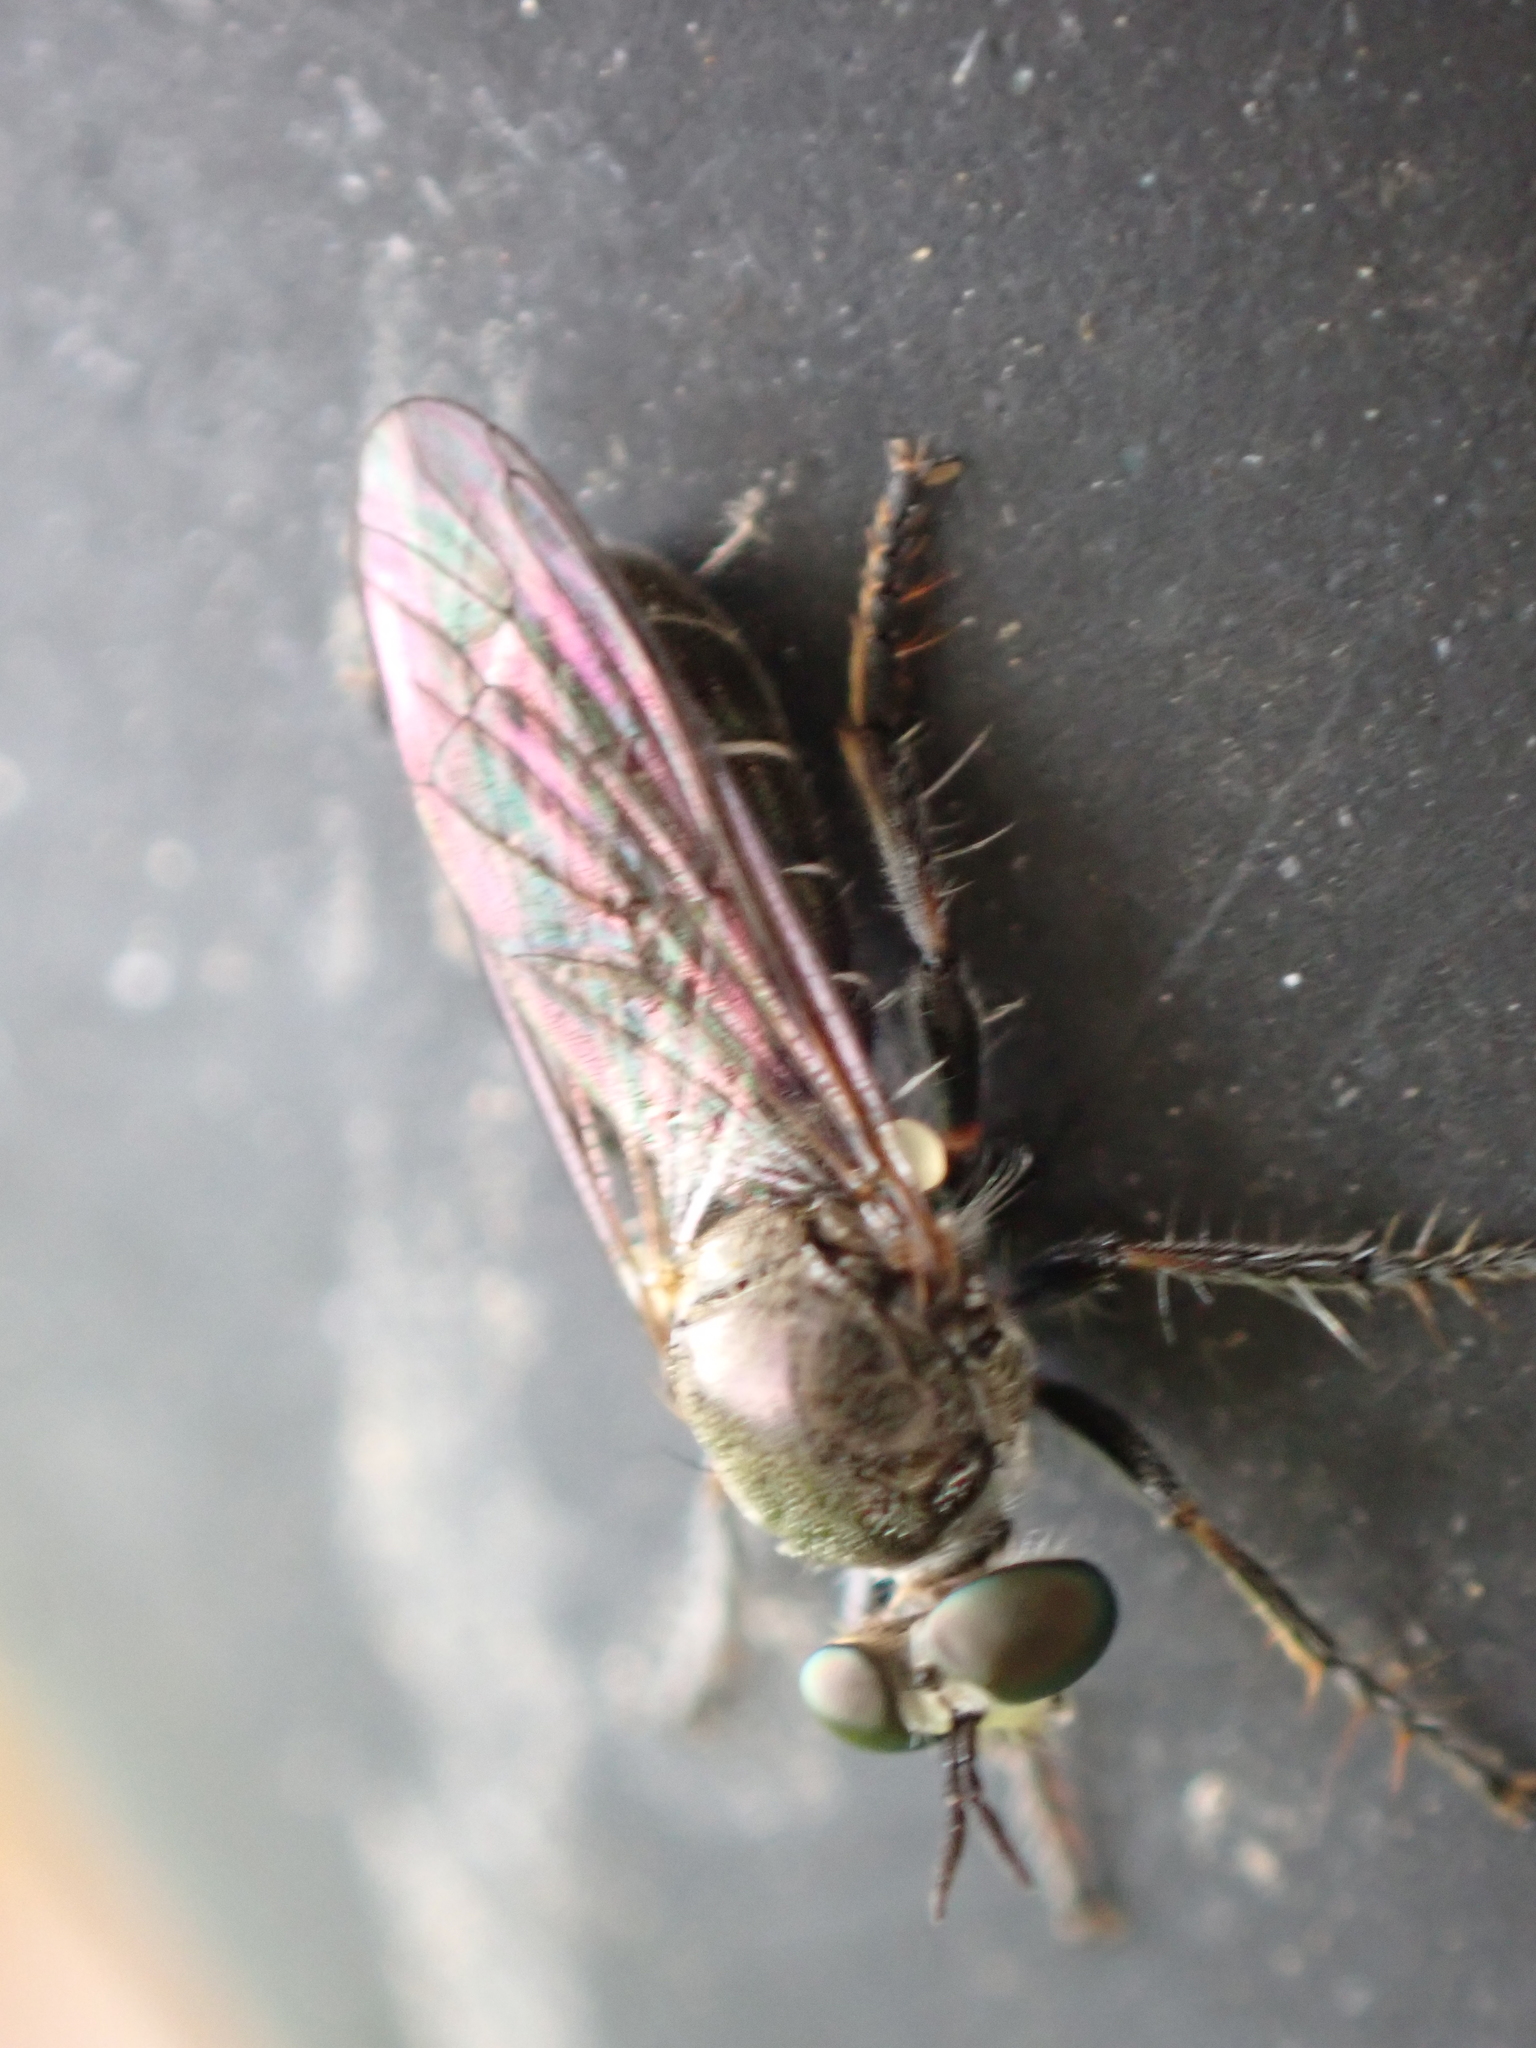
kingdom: Animalia
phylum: Arthropoda
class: Insecta
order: Diptera
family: Asilidae
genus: Atomosia
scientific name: Atomosia puella
